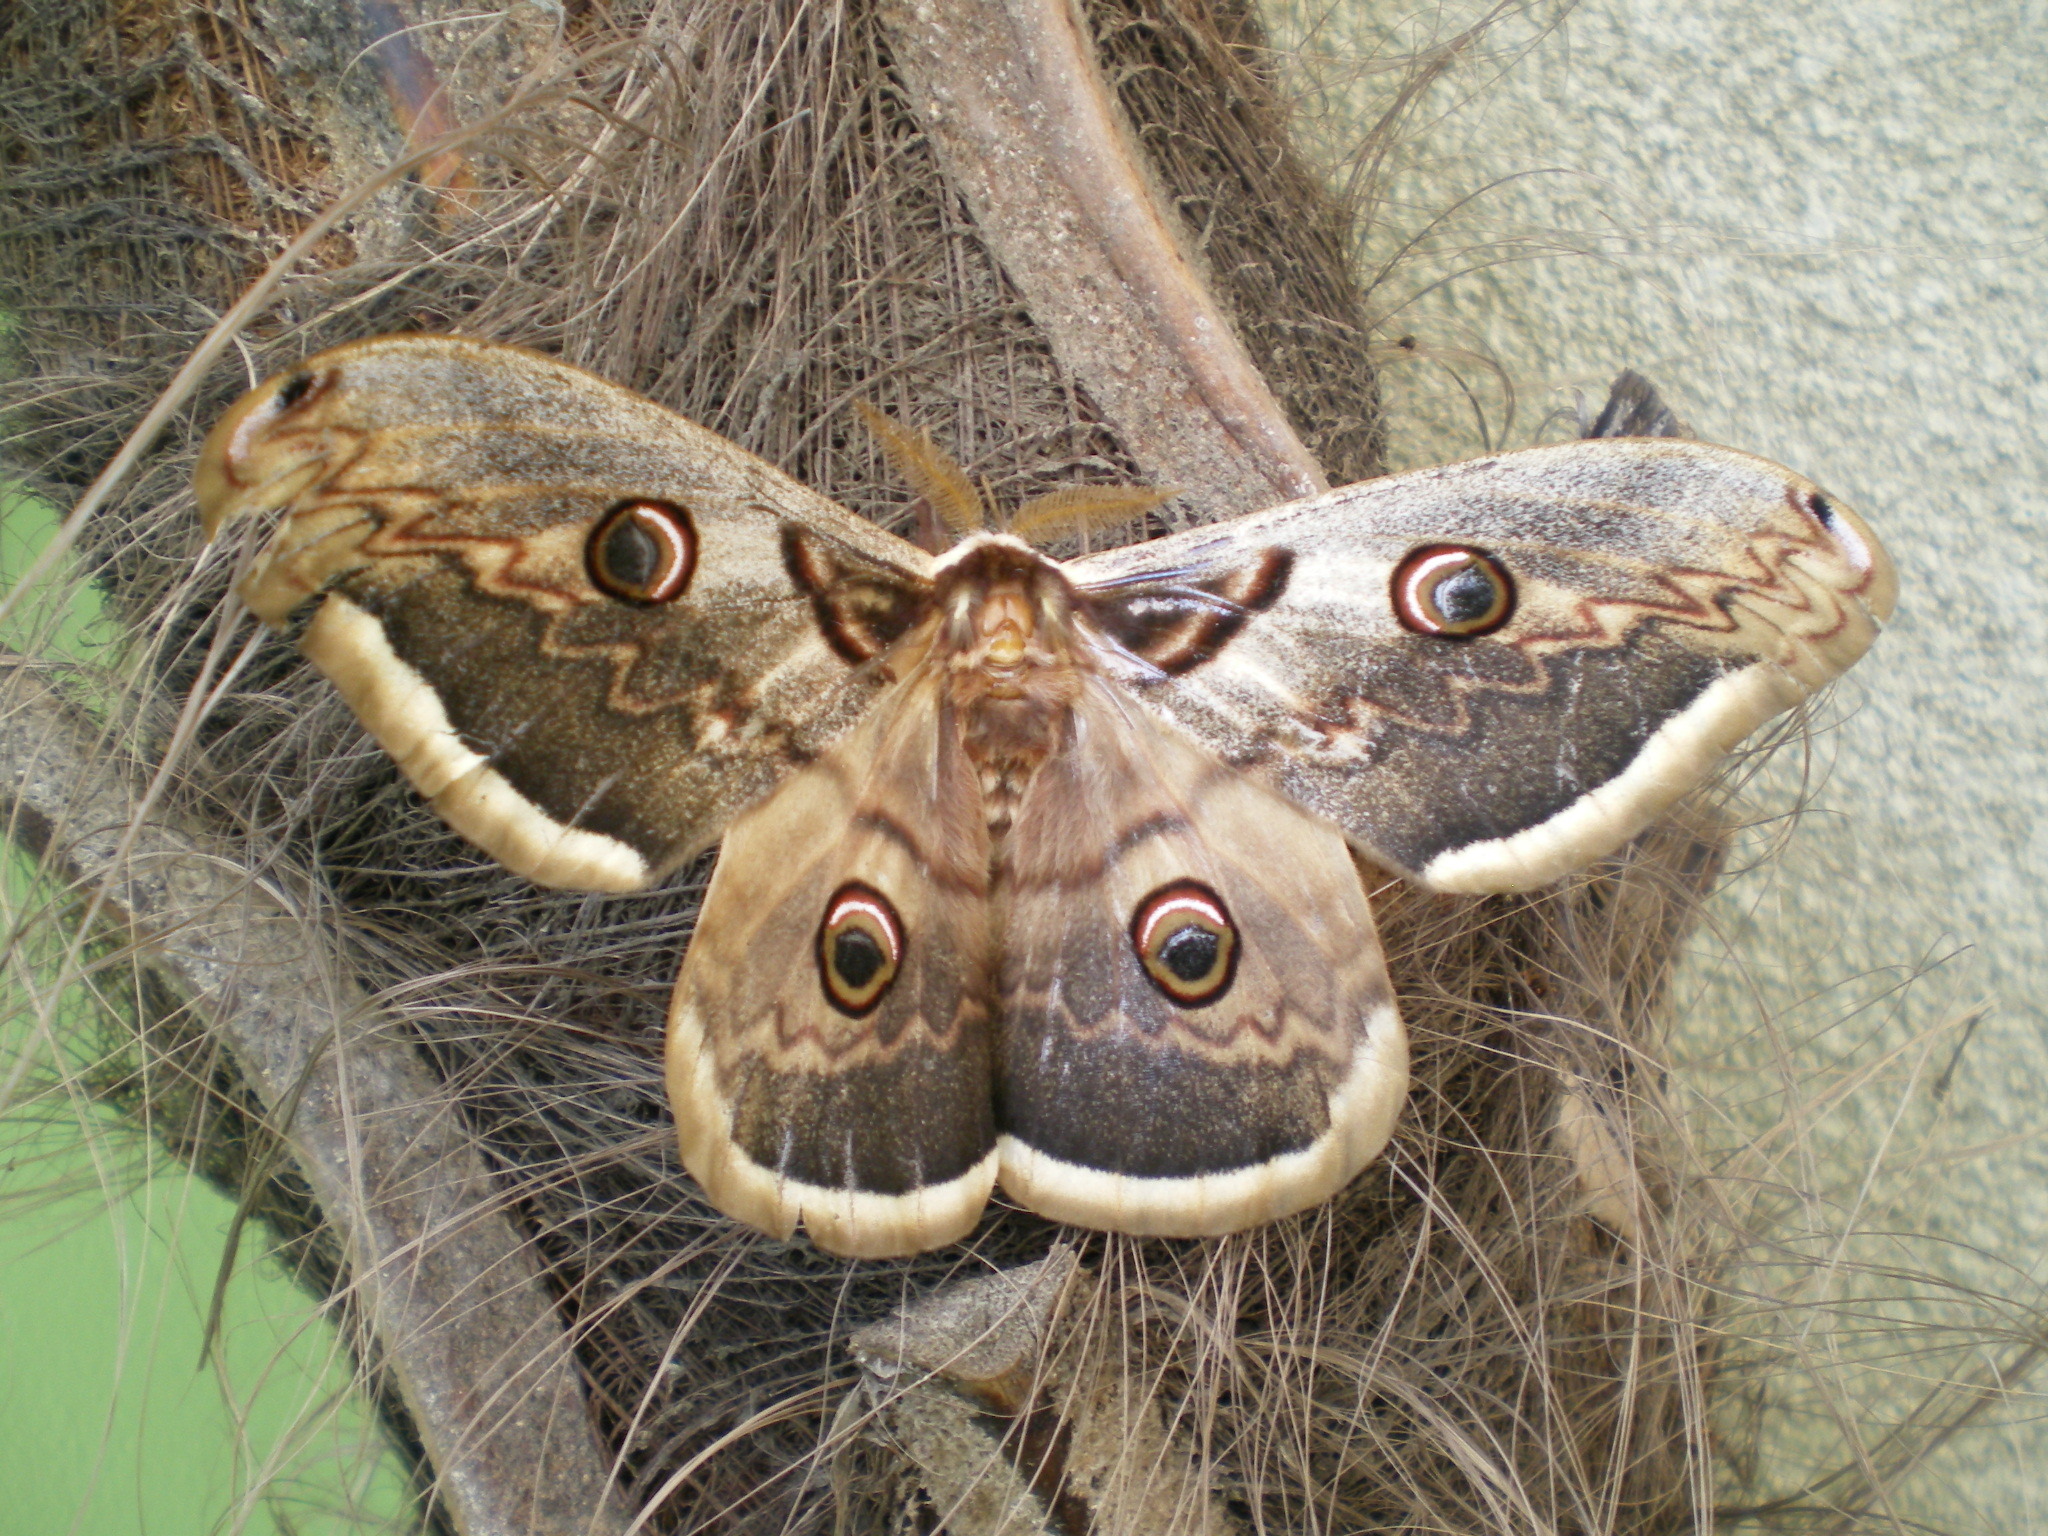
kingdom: Animalia
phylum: Arthropoda
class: Insecta
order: Lepidoptera
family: Saturniidae
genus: Saturnia
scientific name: Saturnia pyri
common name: Great peacock moth
